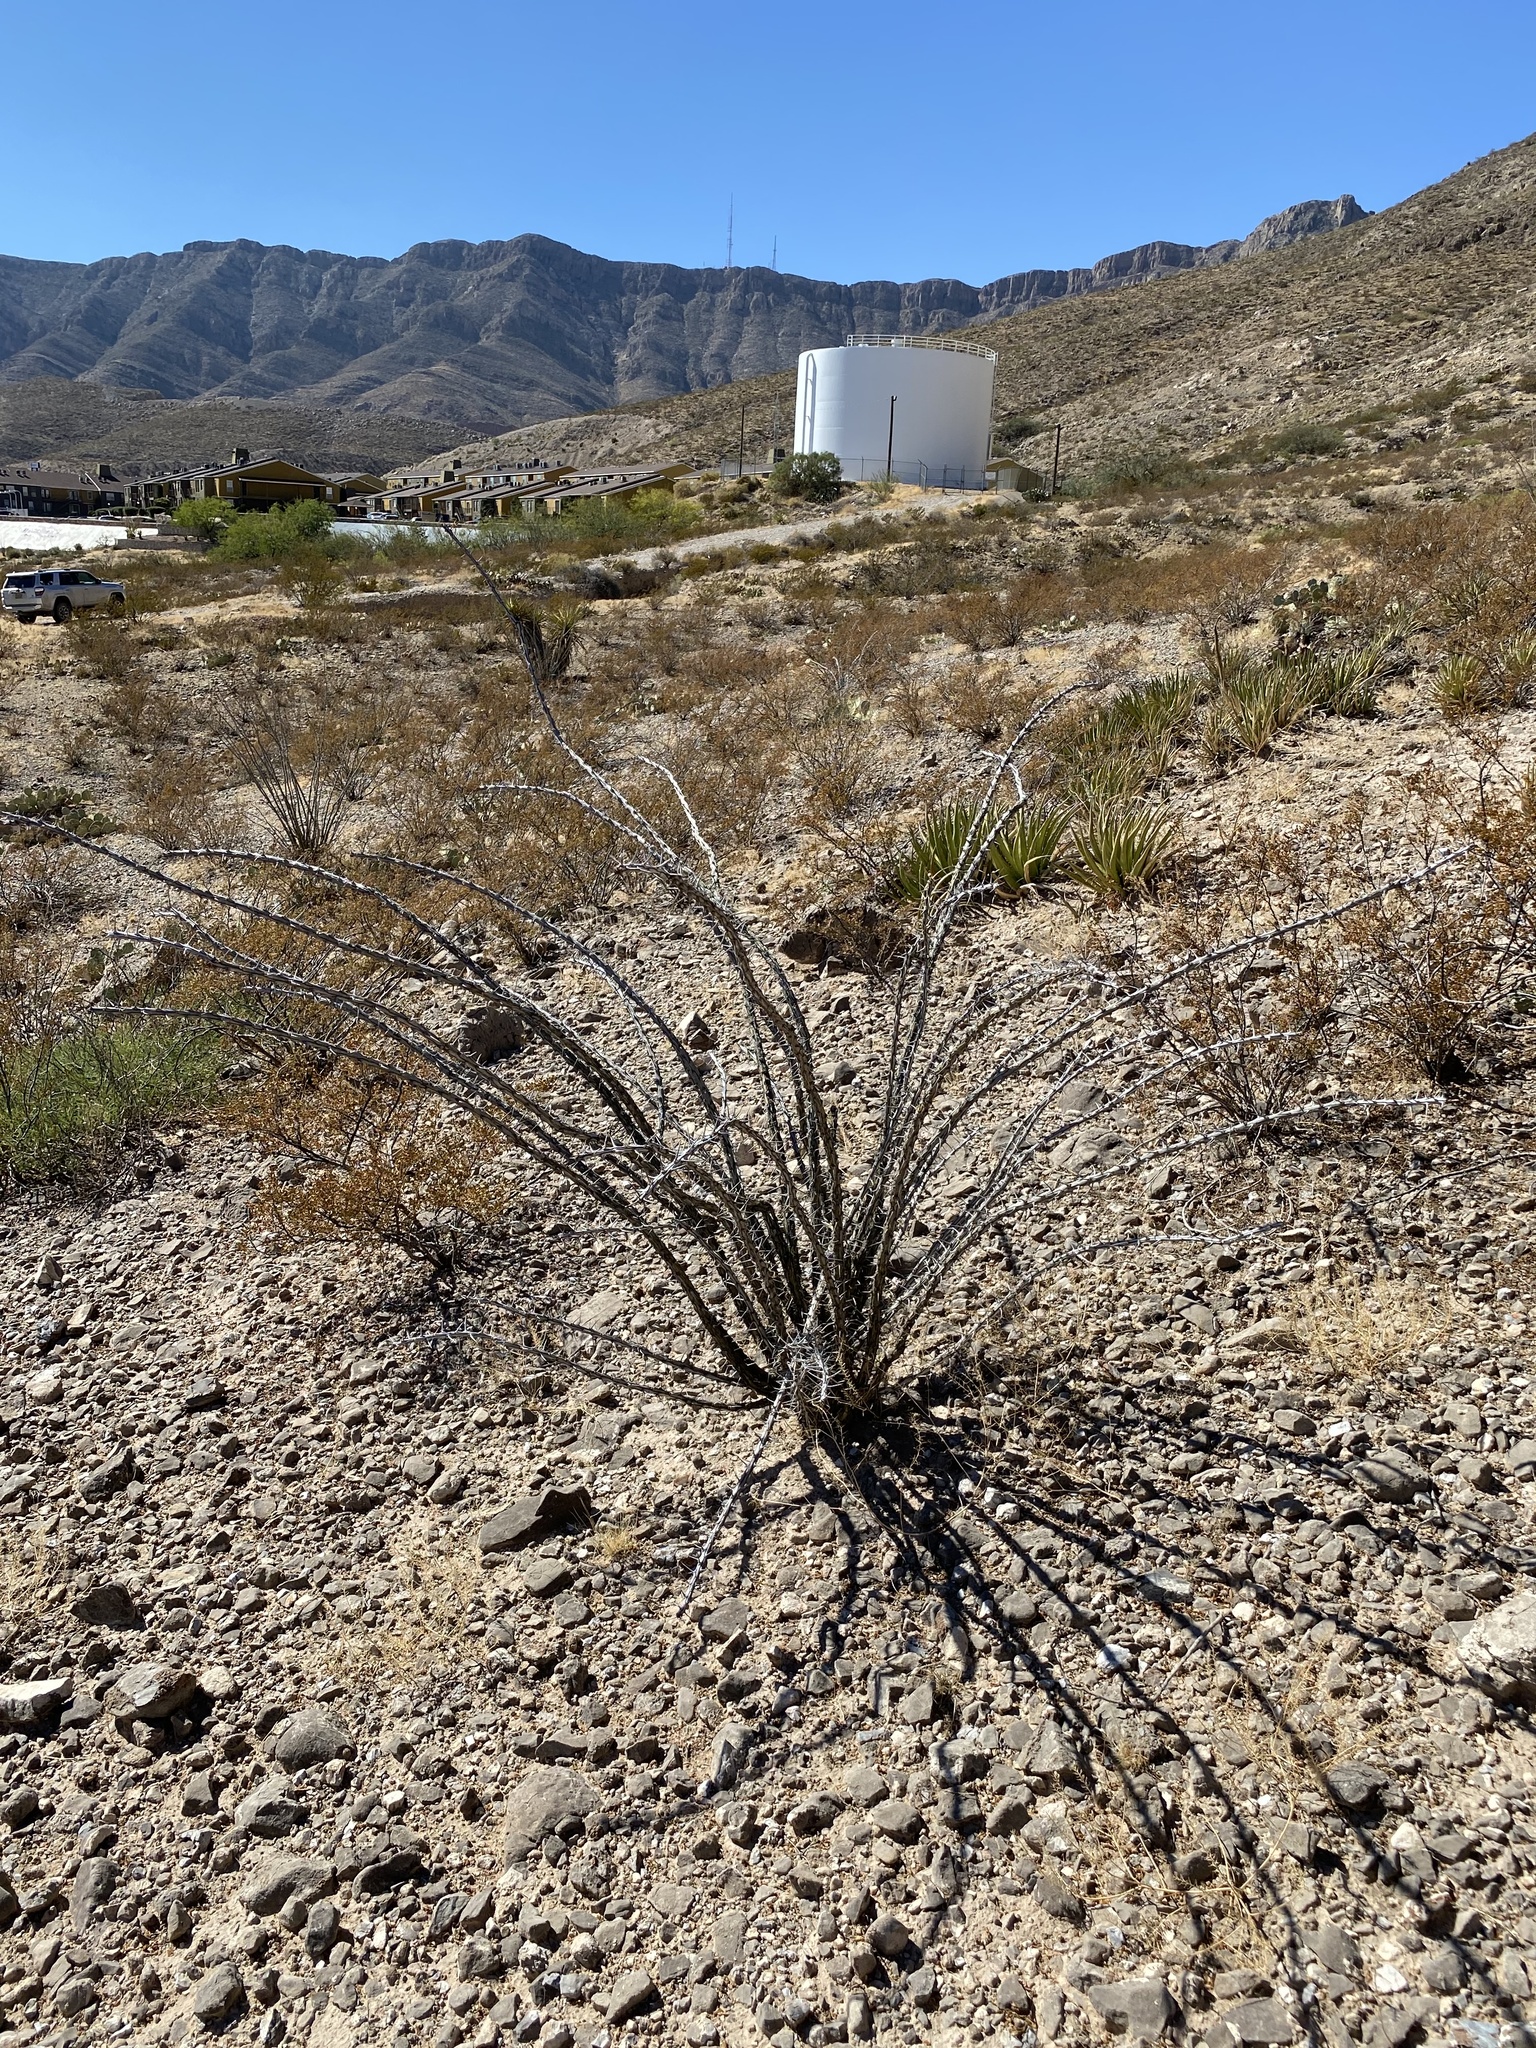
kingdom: Plantae
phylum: Tracheophyta
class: Magnoliopsida
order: Ericales
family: Fouquieriaceae
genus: Fouquieria
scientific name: Fouquieria splendens
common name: Vine-cactus
